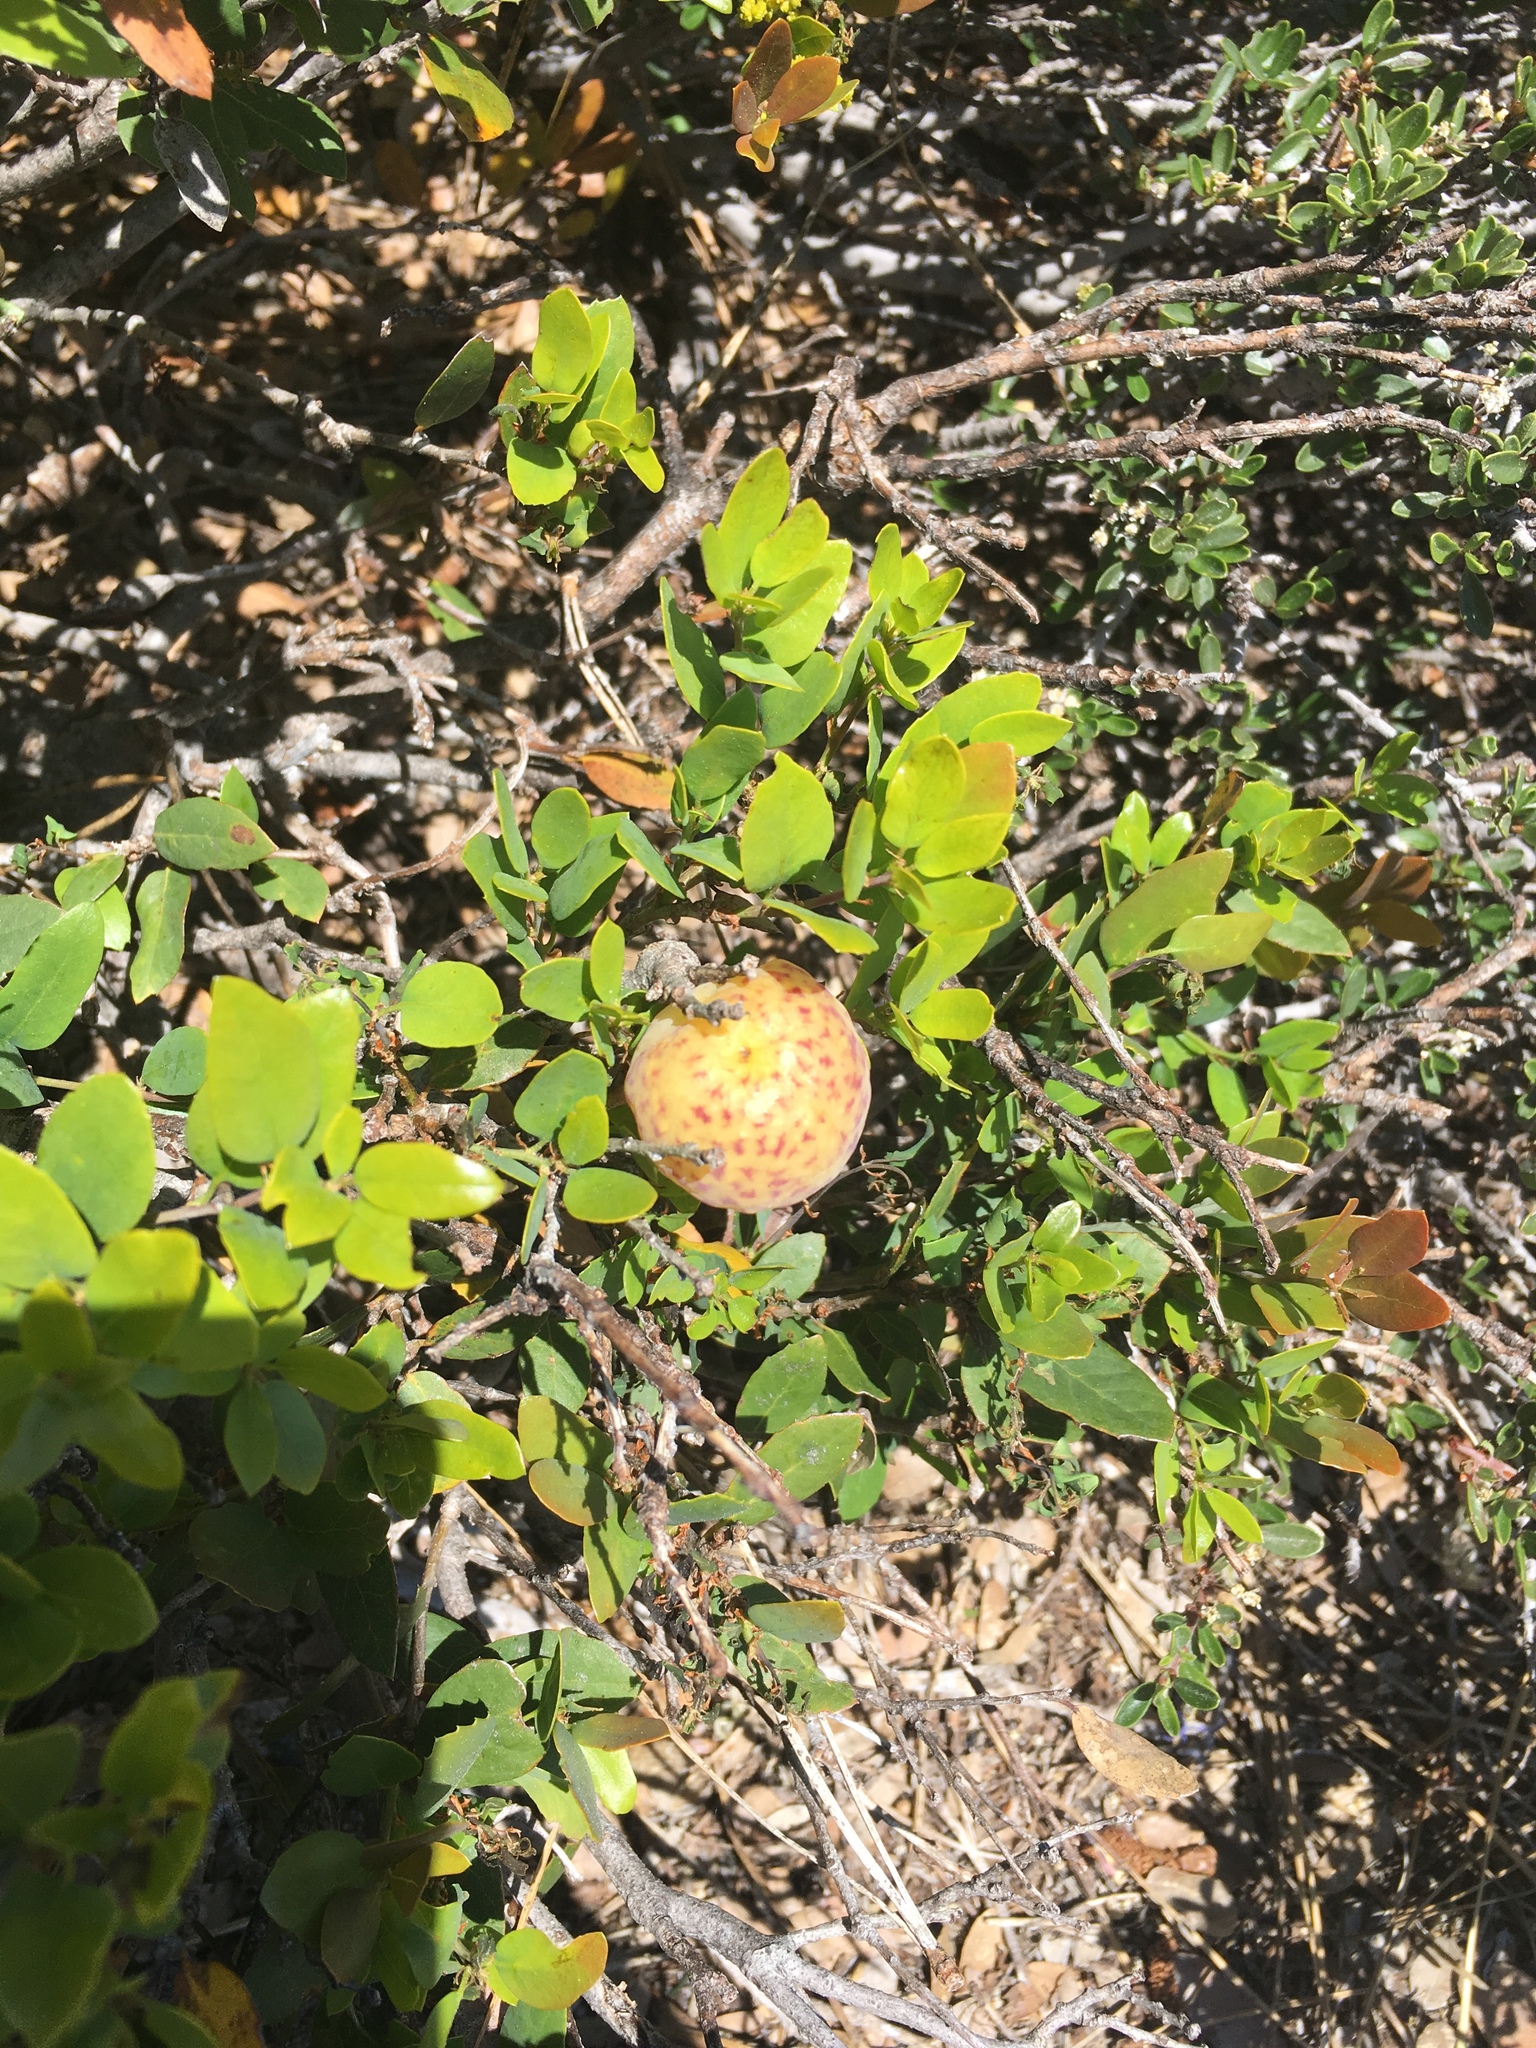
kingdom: Animalia
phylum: Arthropoda
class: Insecta
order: Hymenoptera
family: Cynipidae
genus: Andricus
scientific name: Andricus
